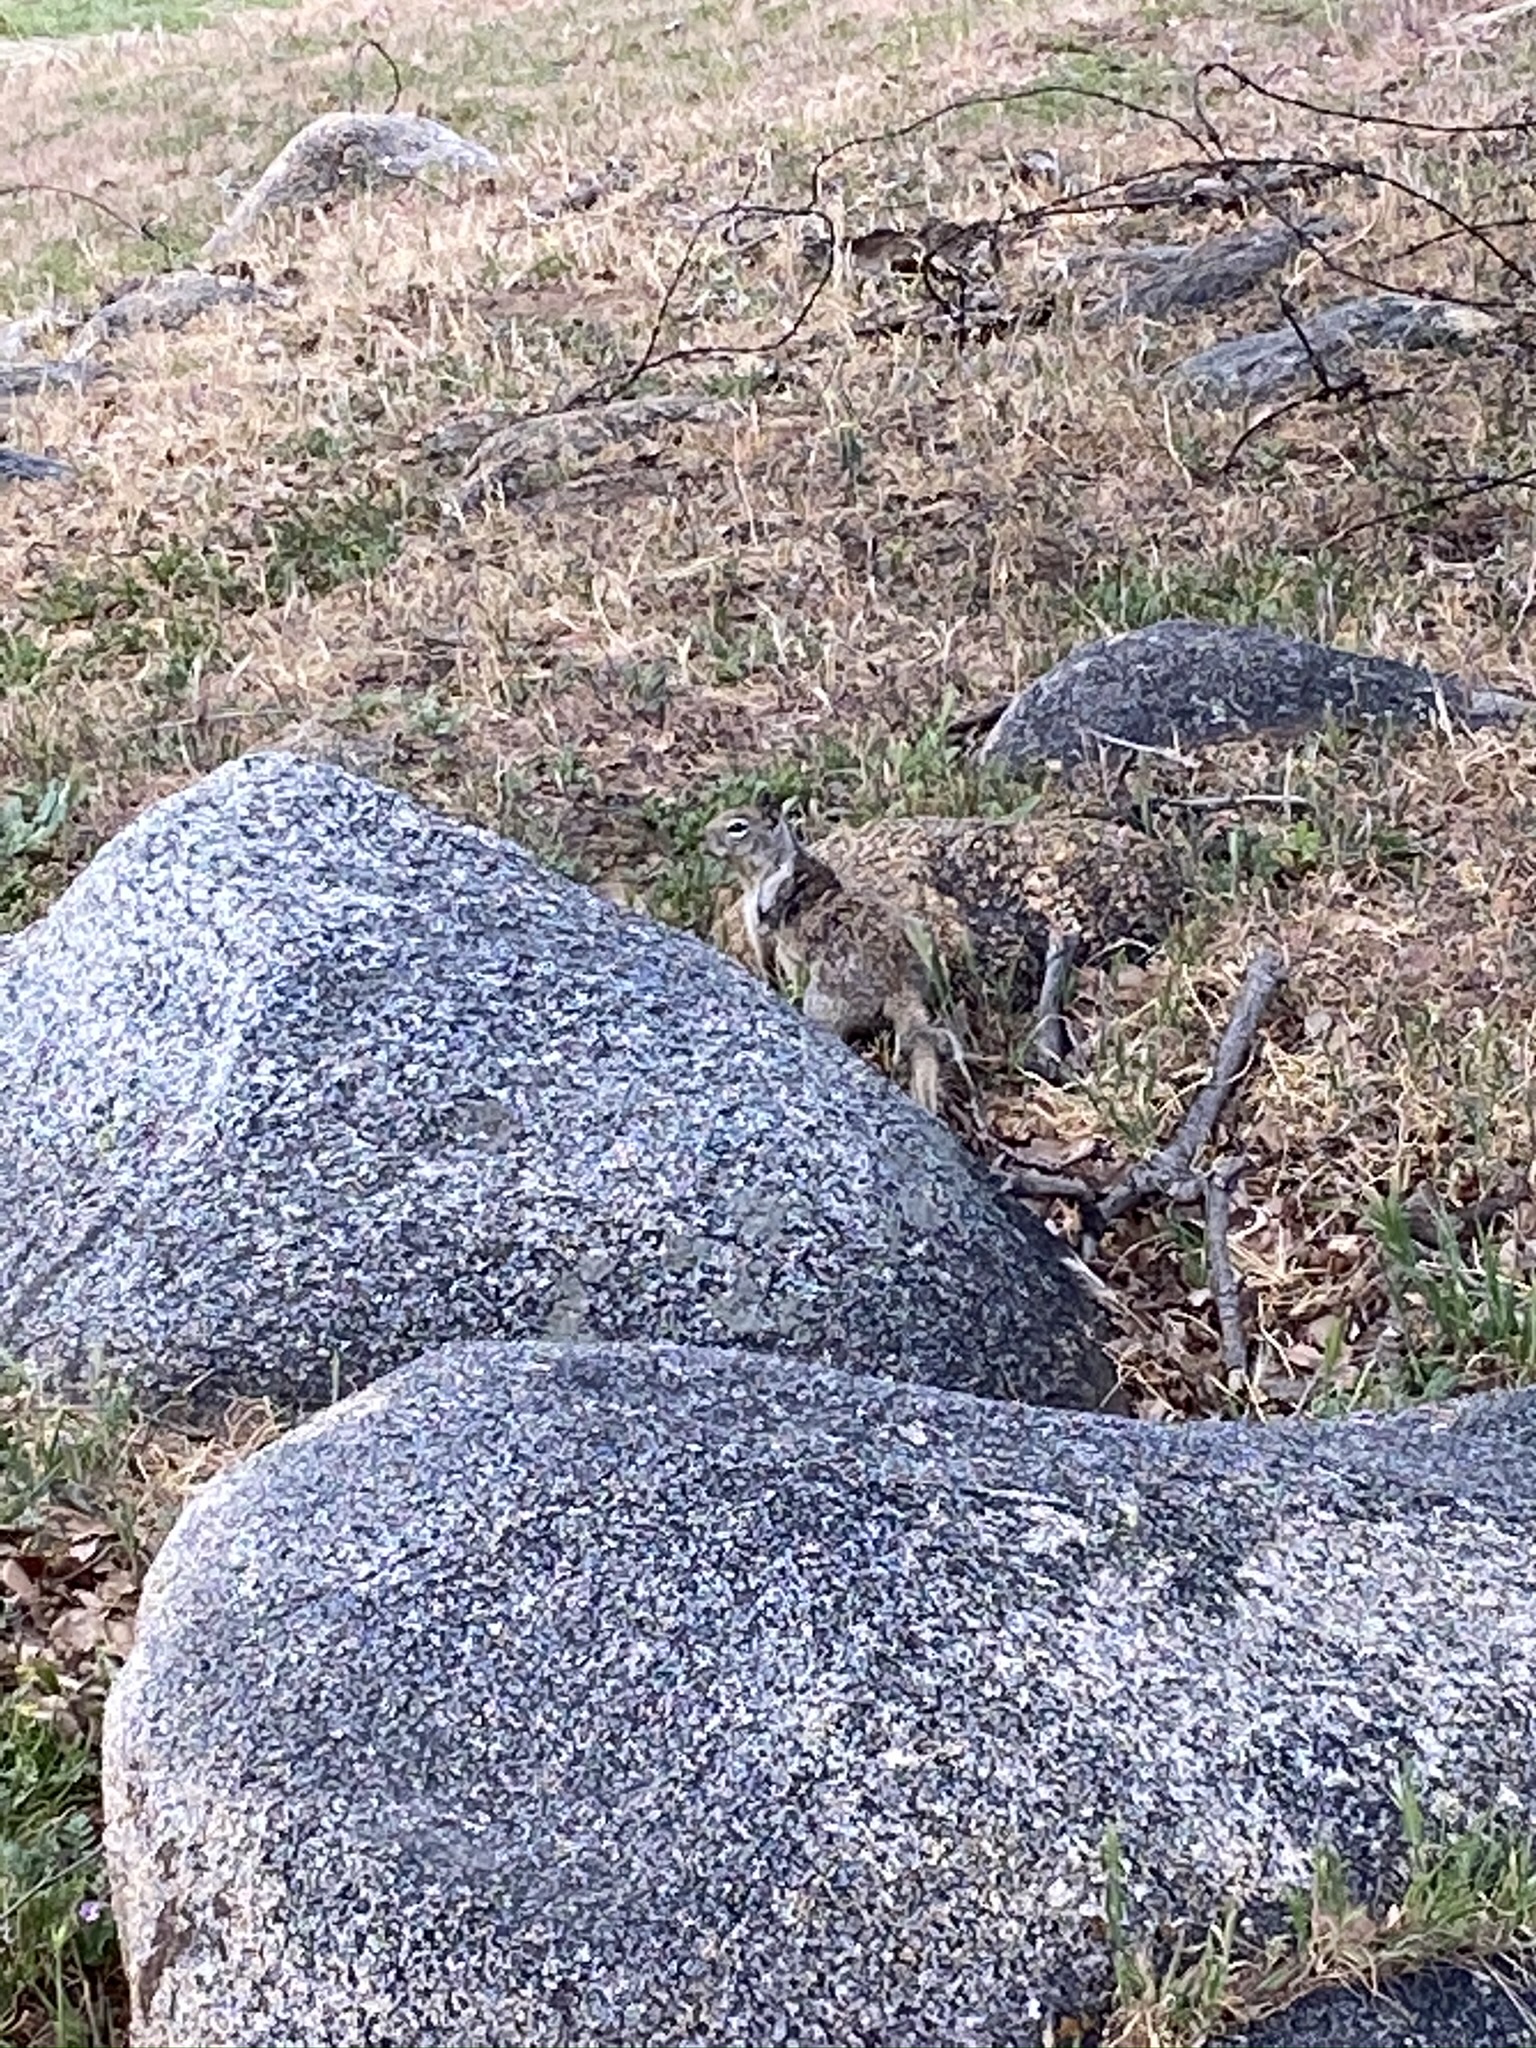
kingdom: Animalia
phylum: Chordata
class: Mammalia
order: Rodentia
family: Sciuridae
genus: Otospermophilus
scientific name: Otospermophilus beecheyi
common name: California ground squirrel
